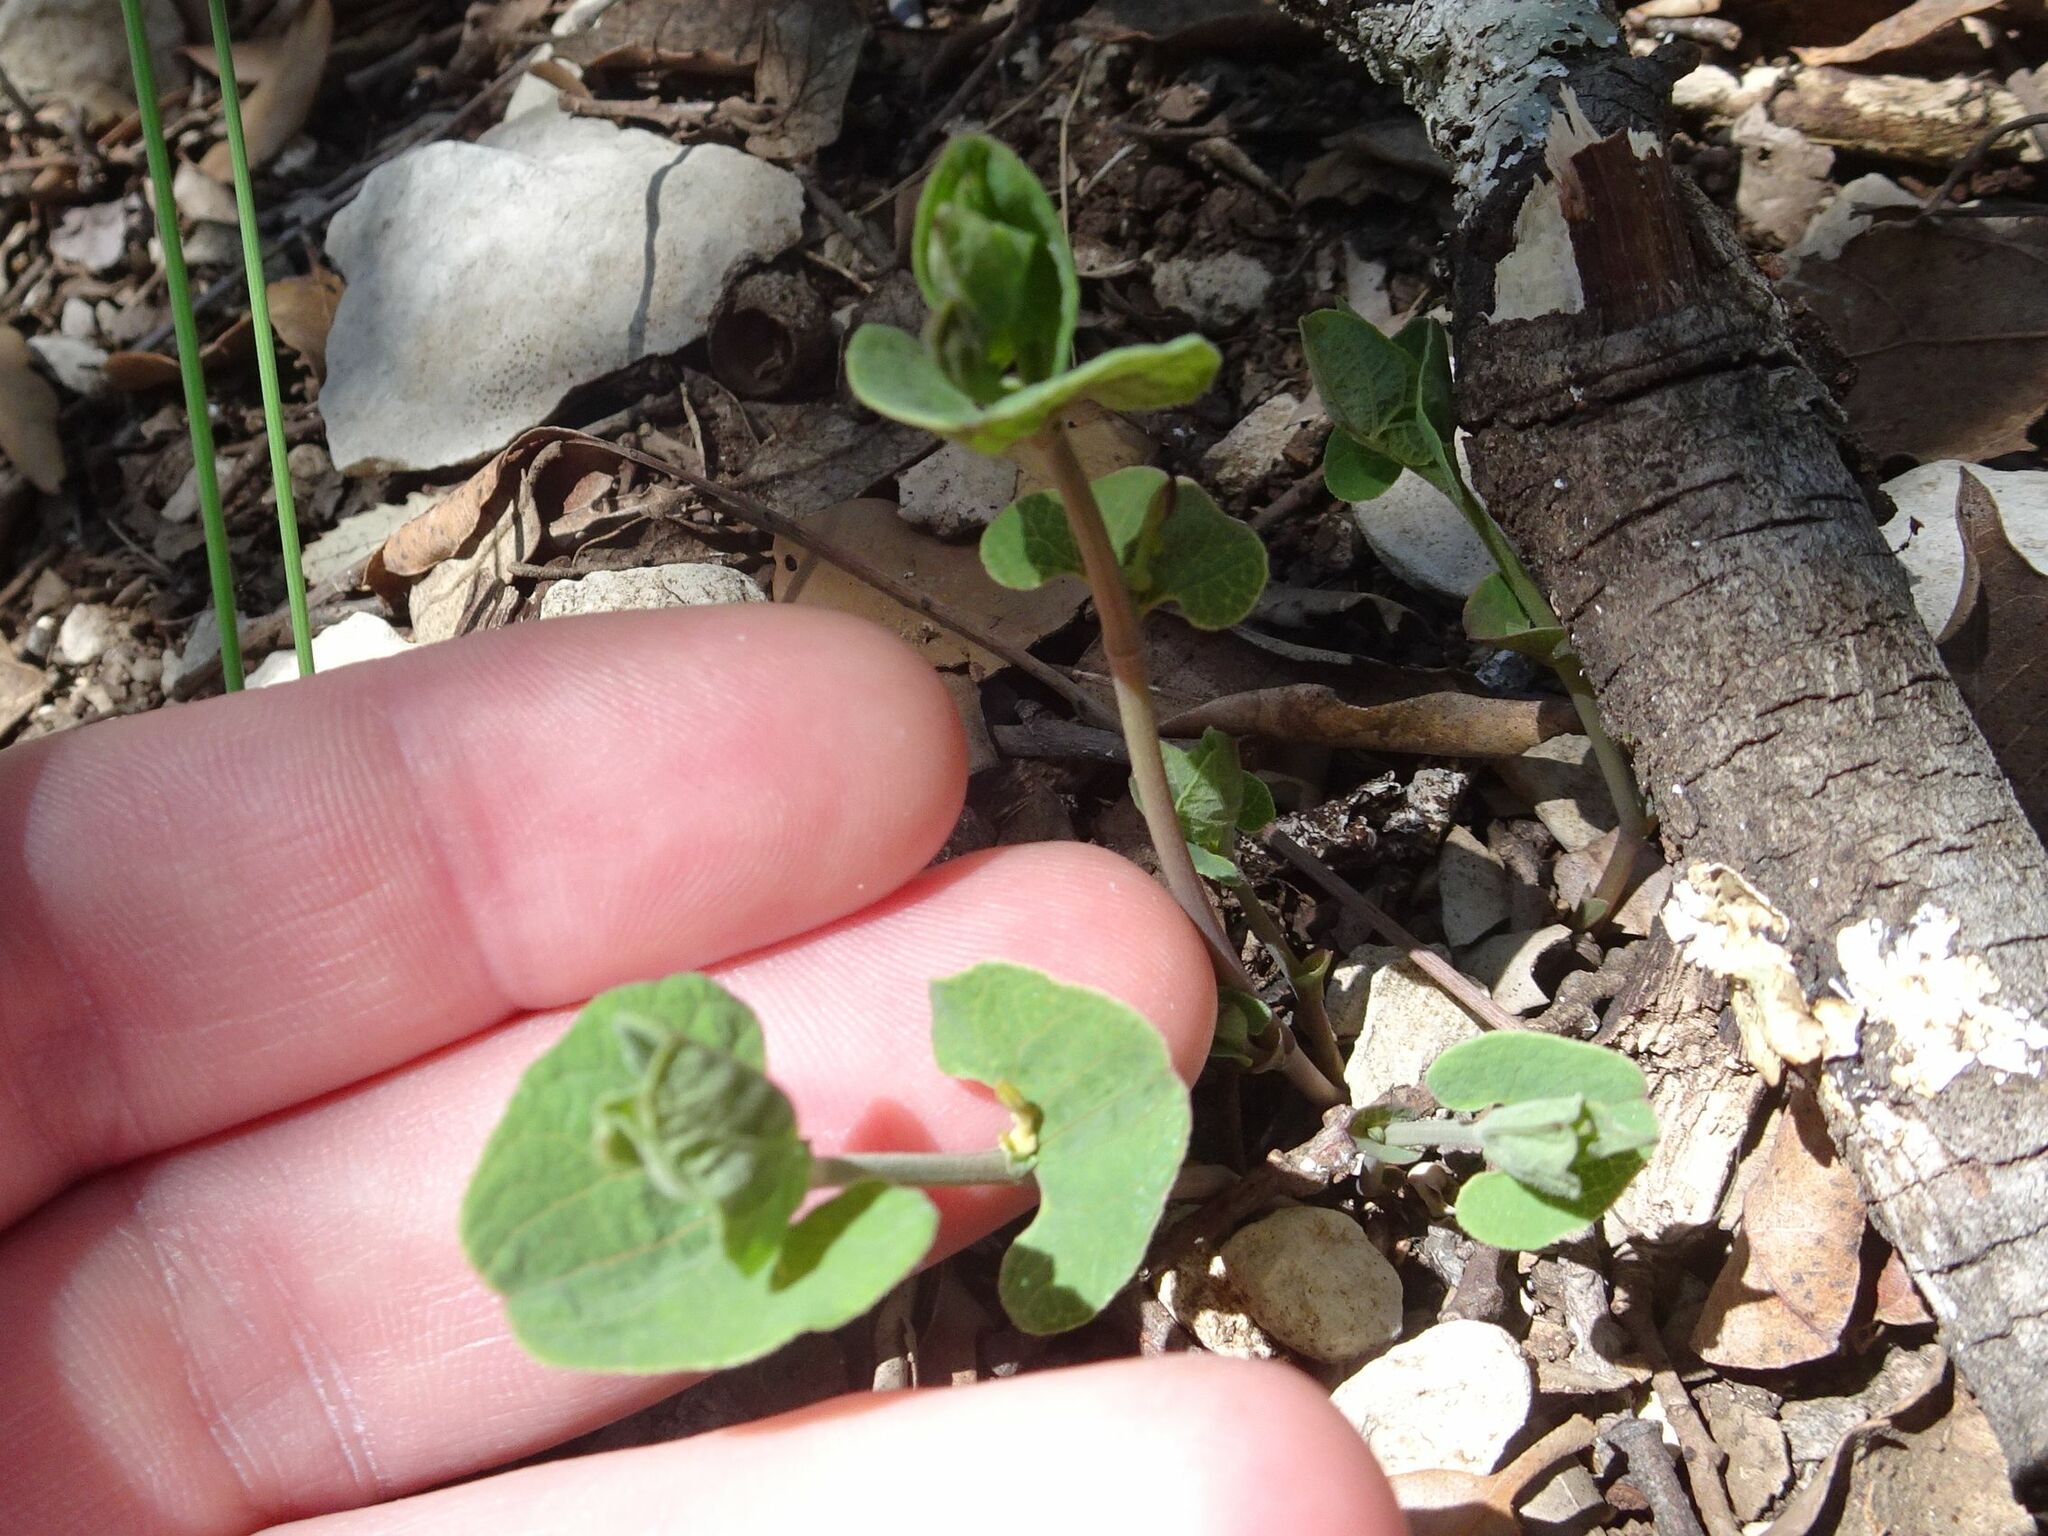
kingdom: Plantae
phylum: Tracheophyta
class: Magnoliopsida
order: Piperales
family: Aristolochiaceae
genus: Aristolochia
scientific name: Aristolochia pistolochia
